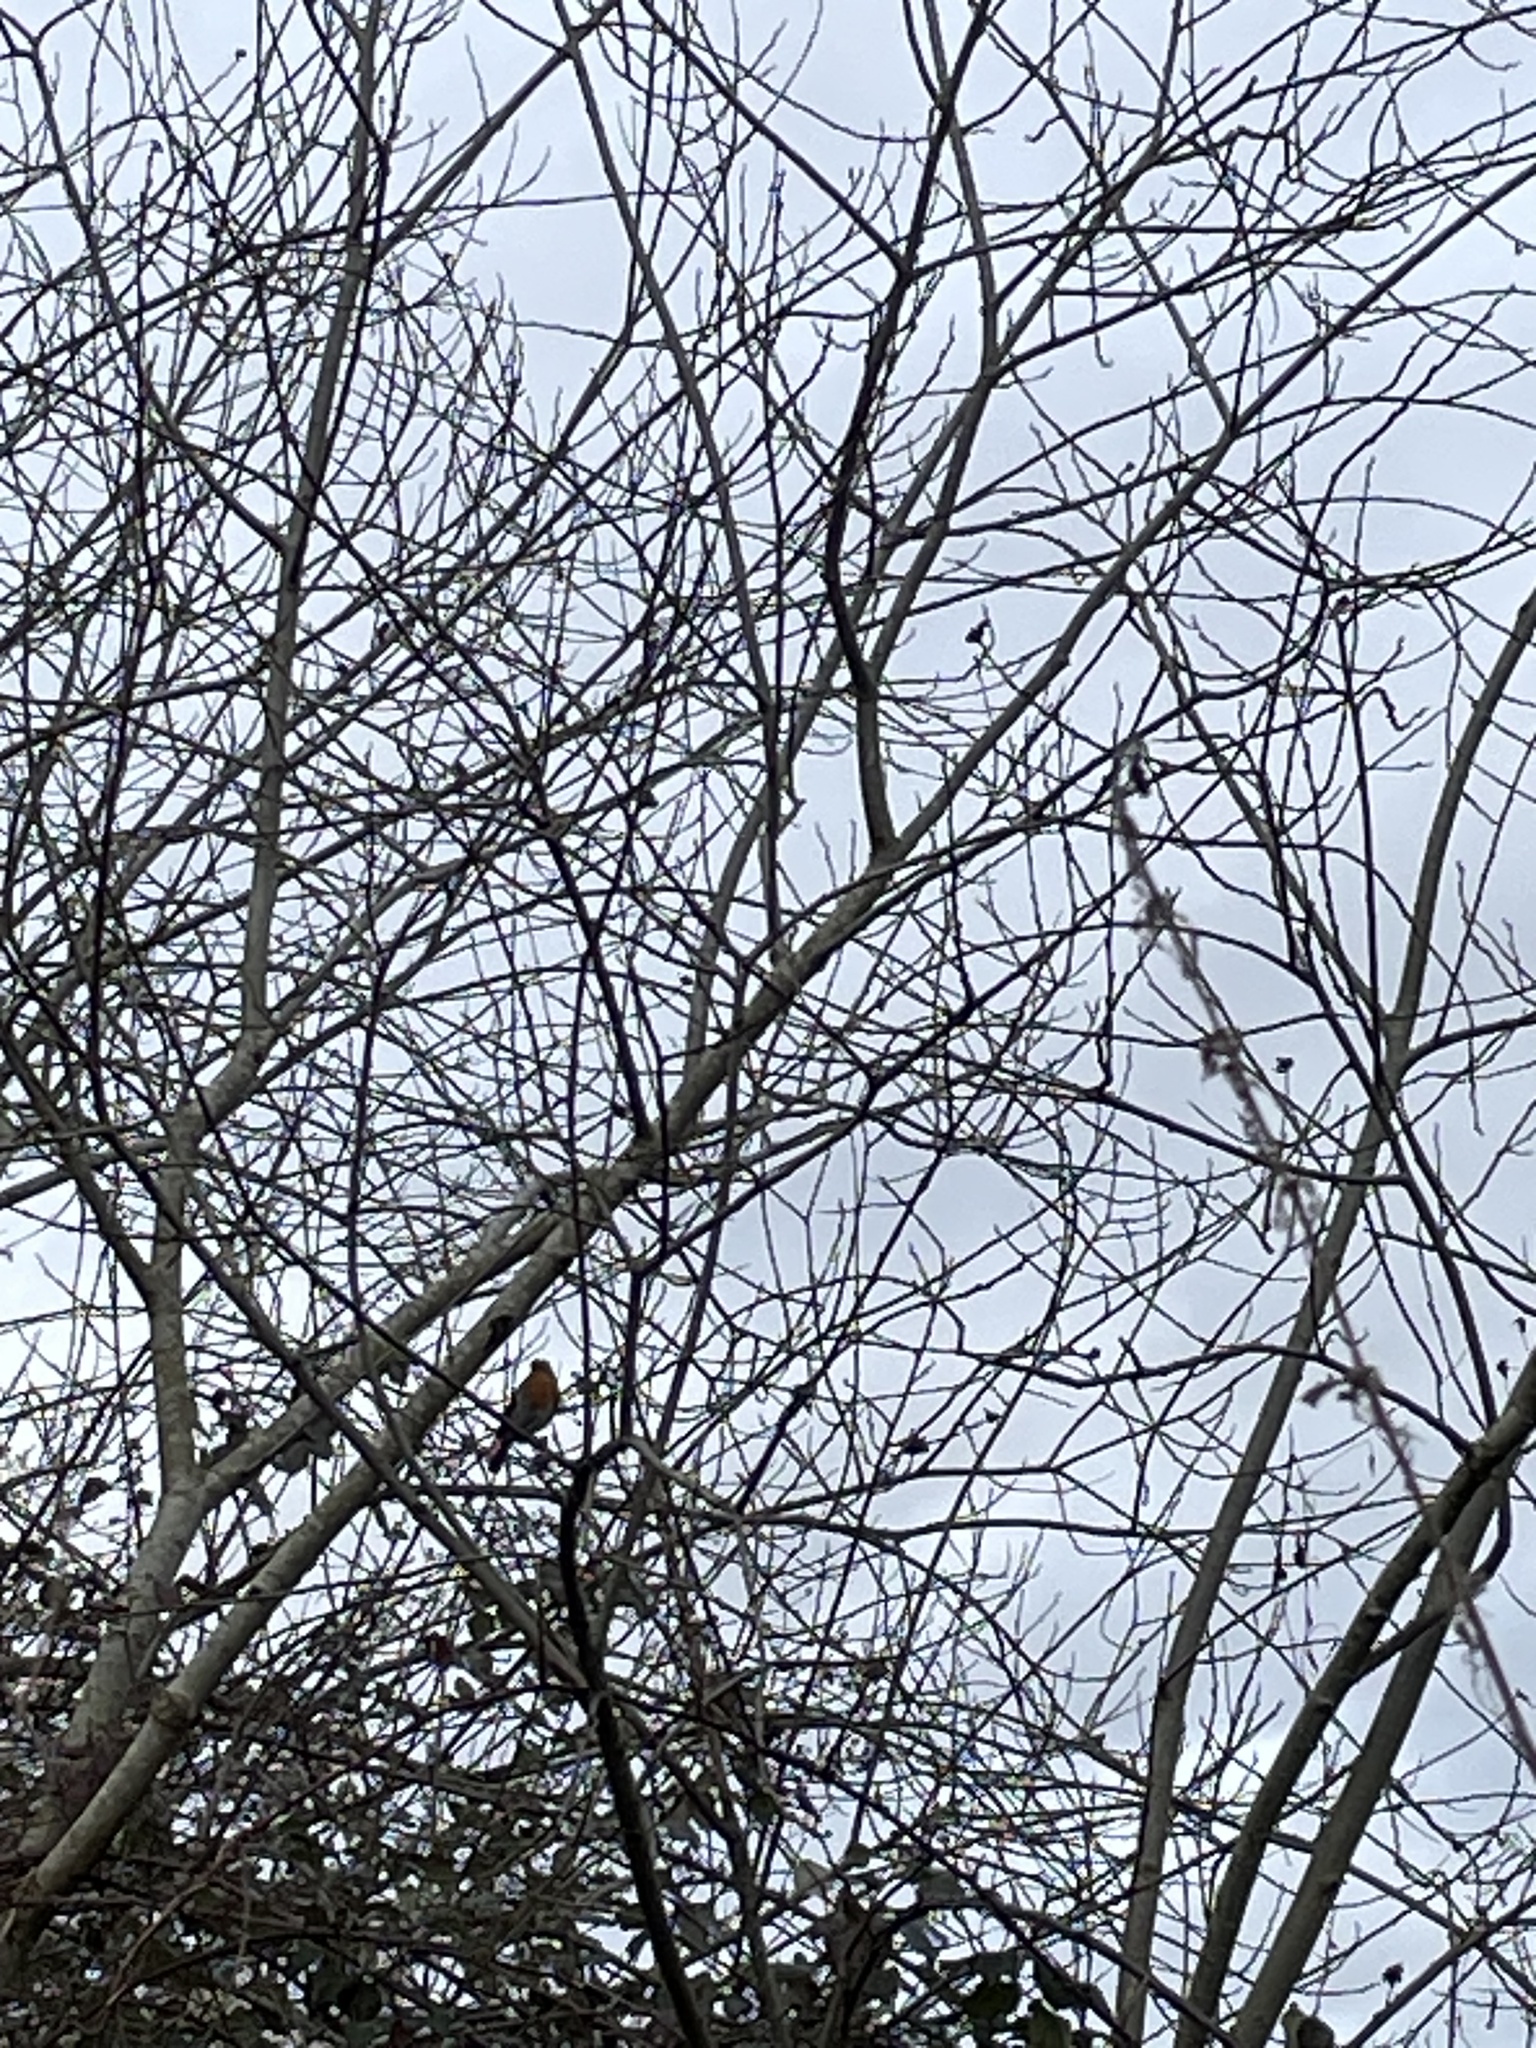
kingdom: Animalia
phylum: Chordata
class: Aves
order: Passeriformes
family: Muscicapidae
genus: Erithacus
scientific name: Erithacus rubecula
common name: European robin
